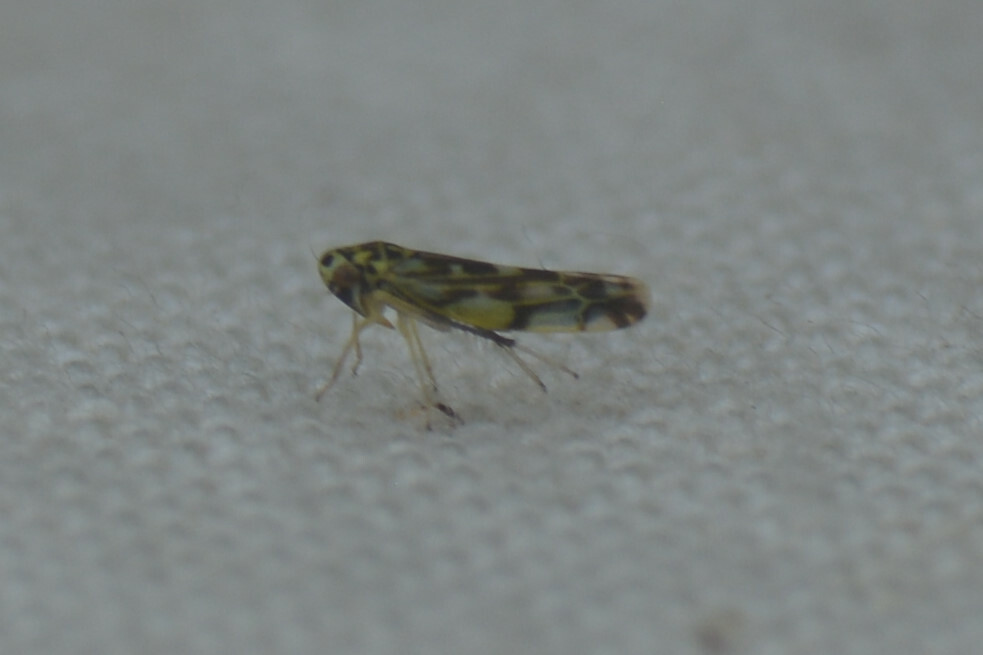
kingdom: Animalia
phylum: Arthropoda
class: Insecta
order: Hemiptera
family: Cicadellidae
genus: Eupteryx
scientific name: Eupteryx urticae
